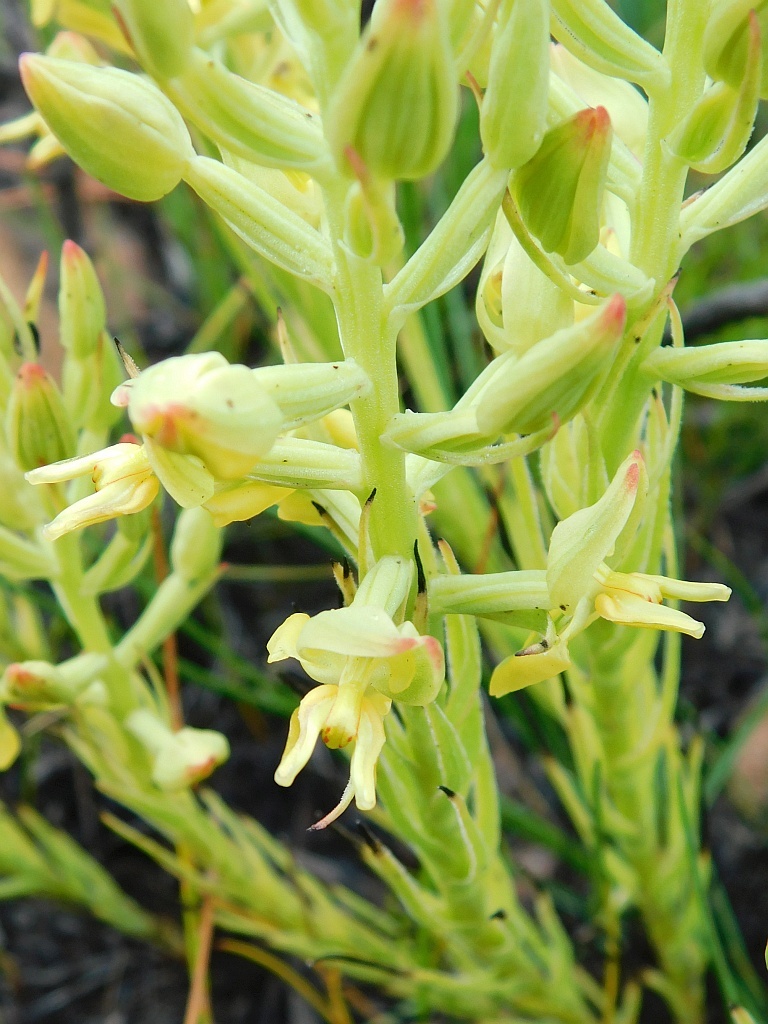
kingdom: Plantae
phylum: Tracheophyta
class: Liliopsida
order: Asparagales
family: Orchidaceae
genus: Ceratandra
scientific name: Ceratandra atrata
